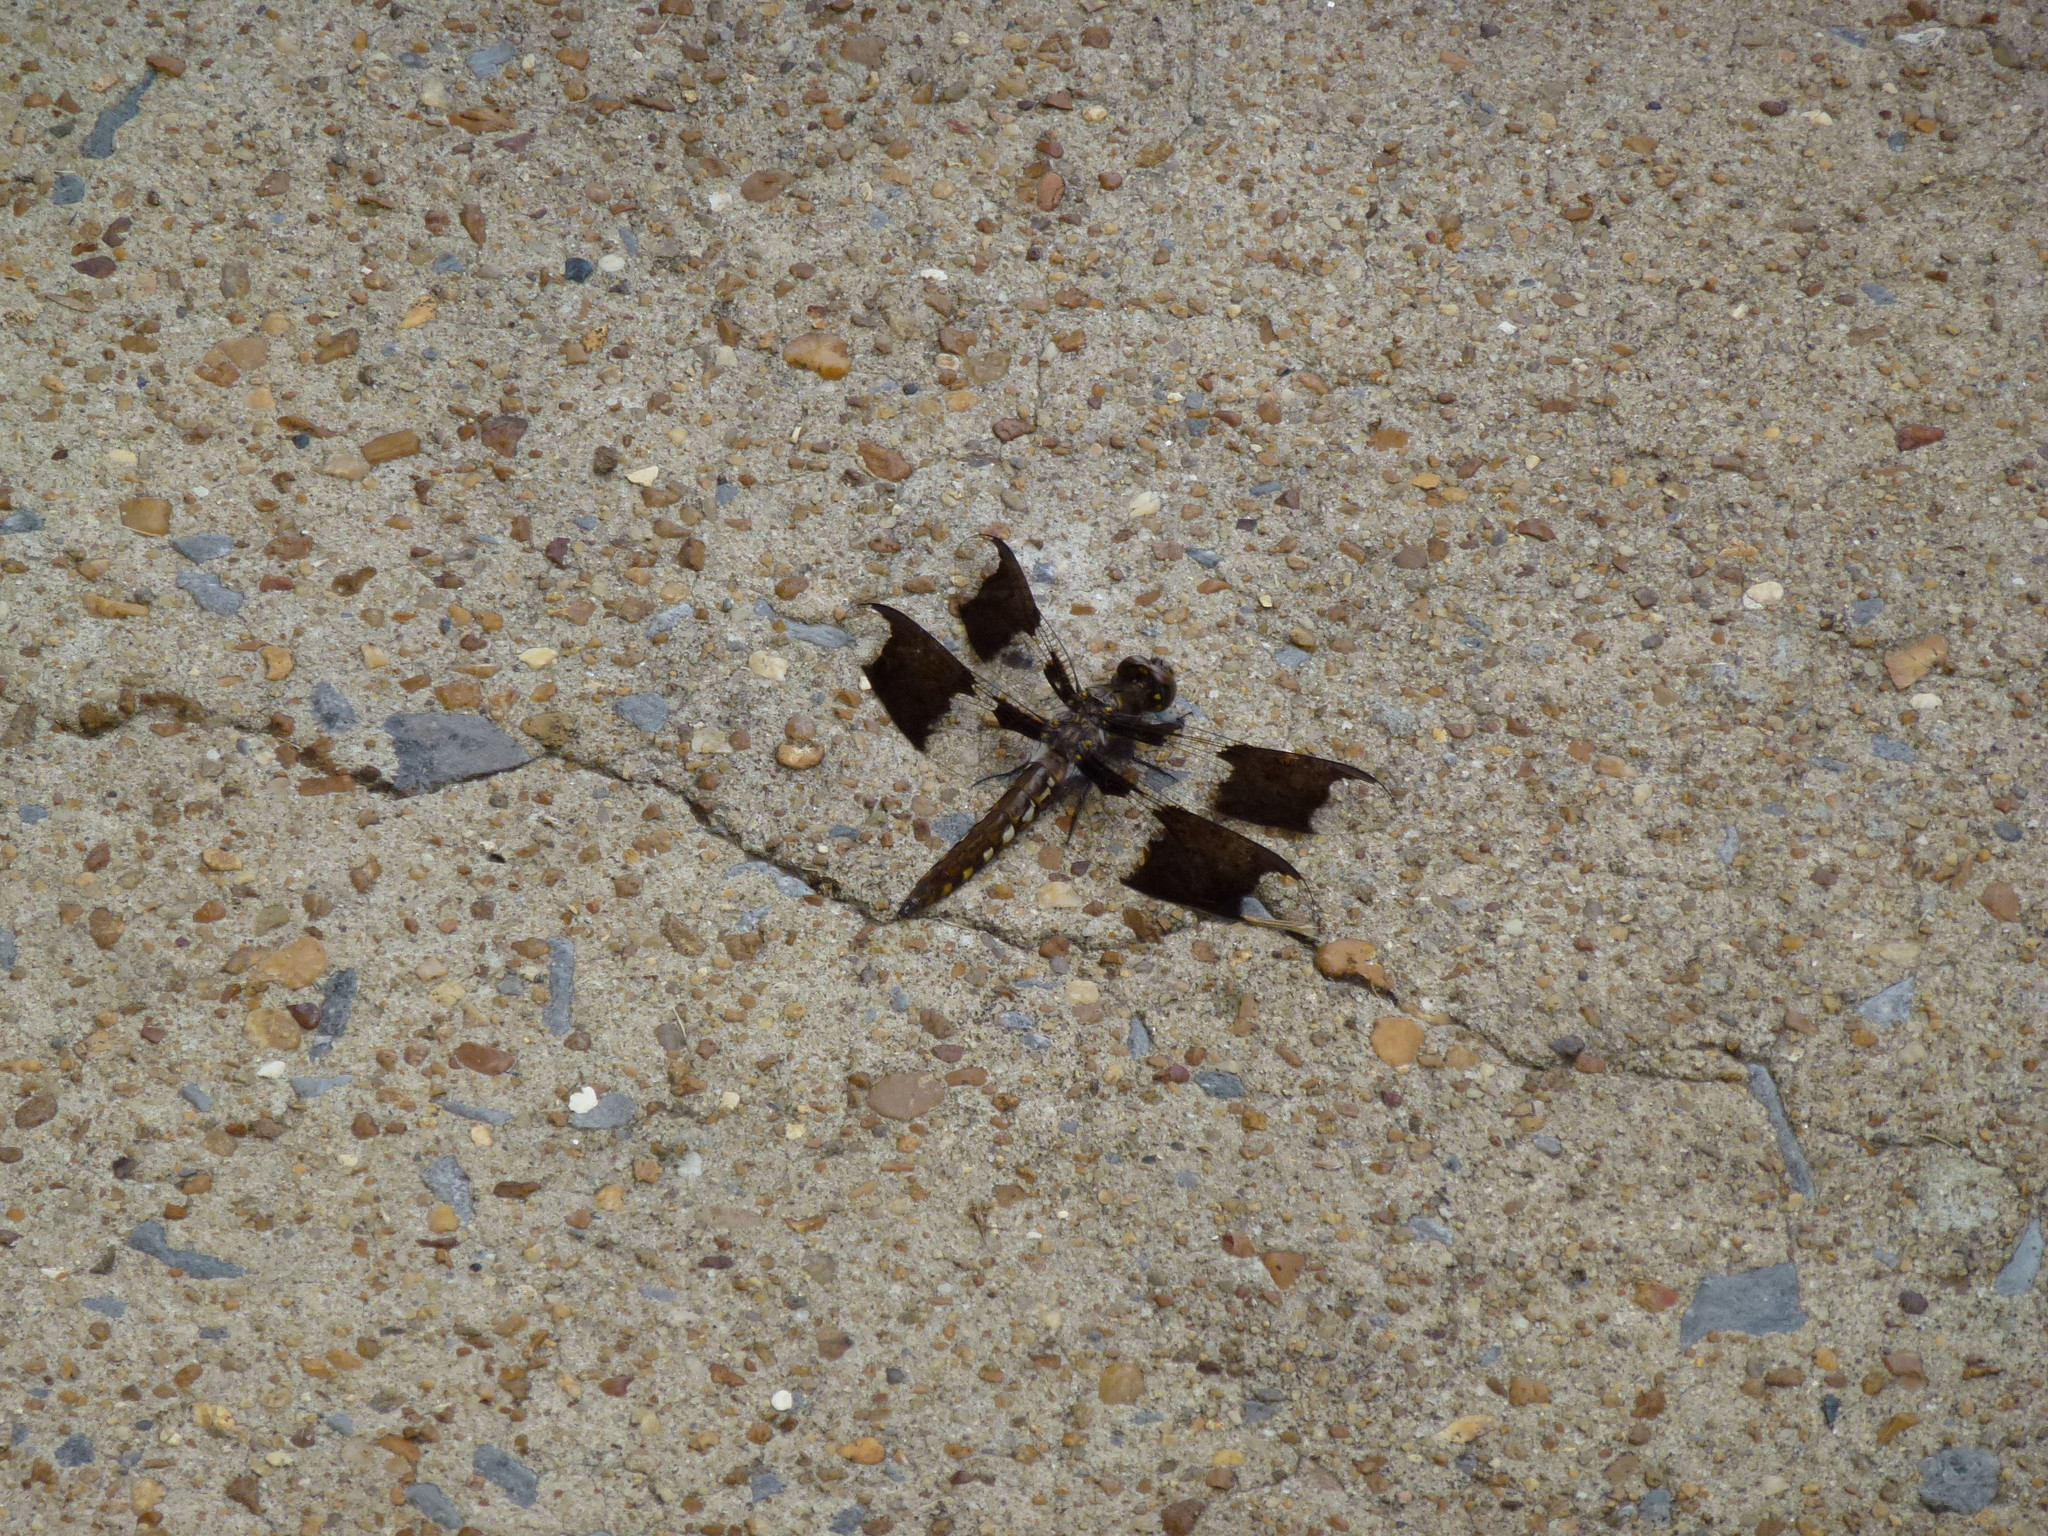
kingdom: Animalia
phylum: Arthropoda
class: Insecta
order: Odonata
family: Libellulidae
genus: Plathemis
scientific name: Plathemis lydia
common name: Common whitetail
